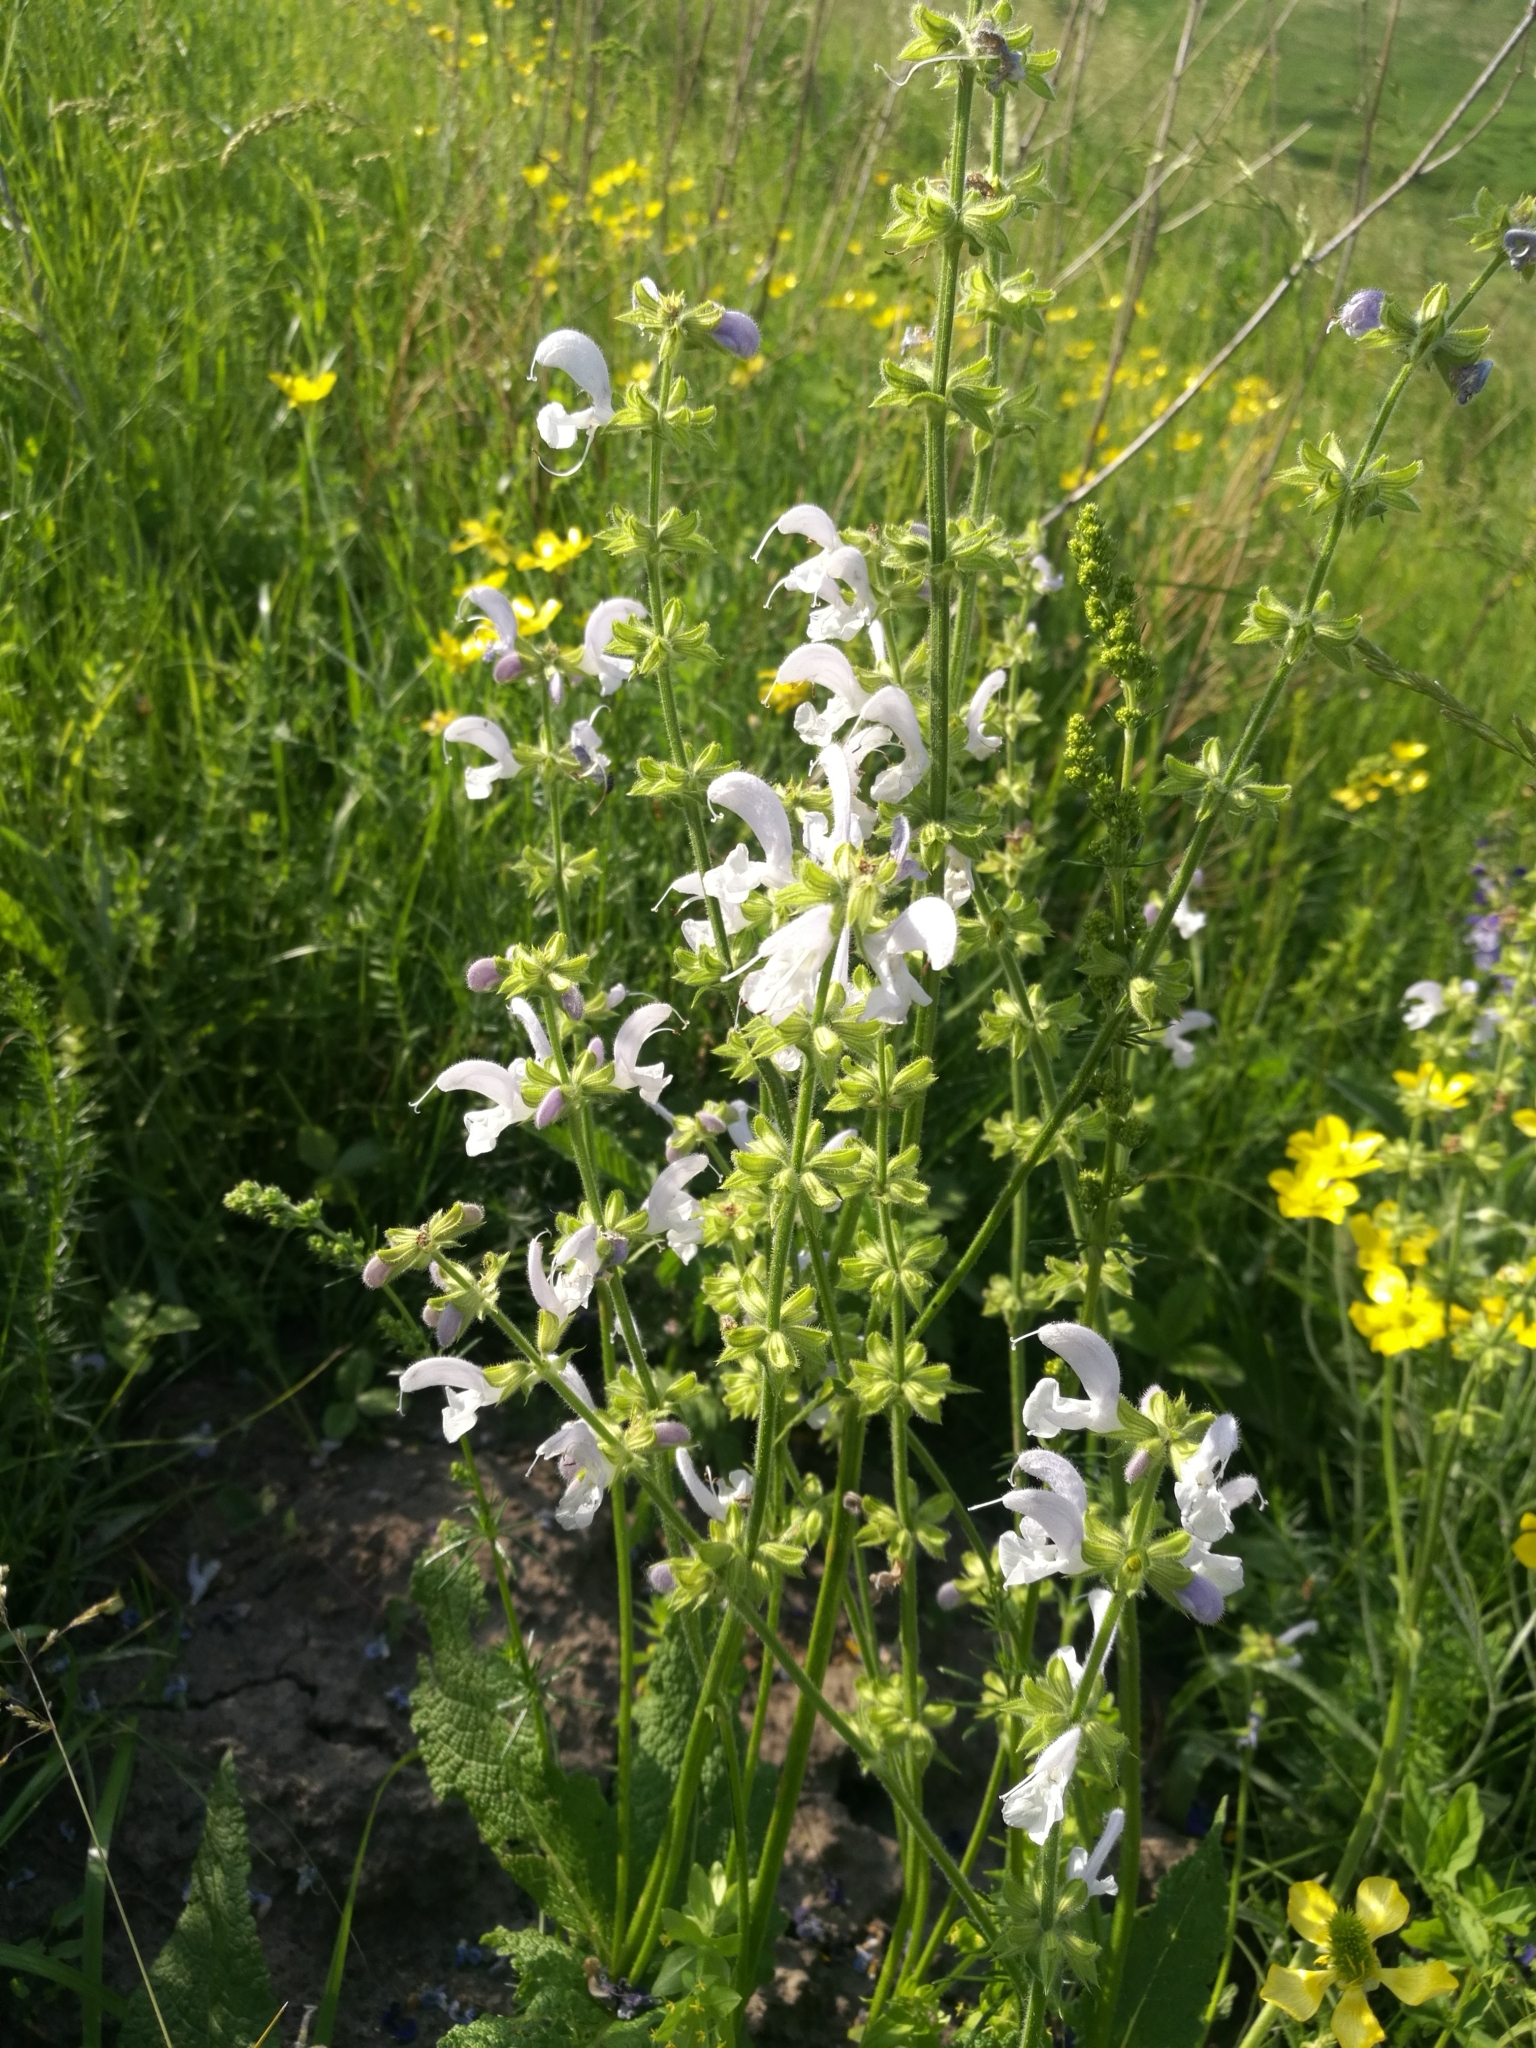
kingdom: Plantae
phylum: Tracheophyta
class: Magnoliopsida
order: Lamiales
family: Lamiaceae
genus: Salvia
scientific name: Salvia pratensis
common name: Meadow sage
